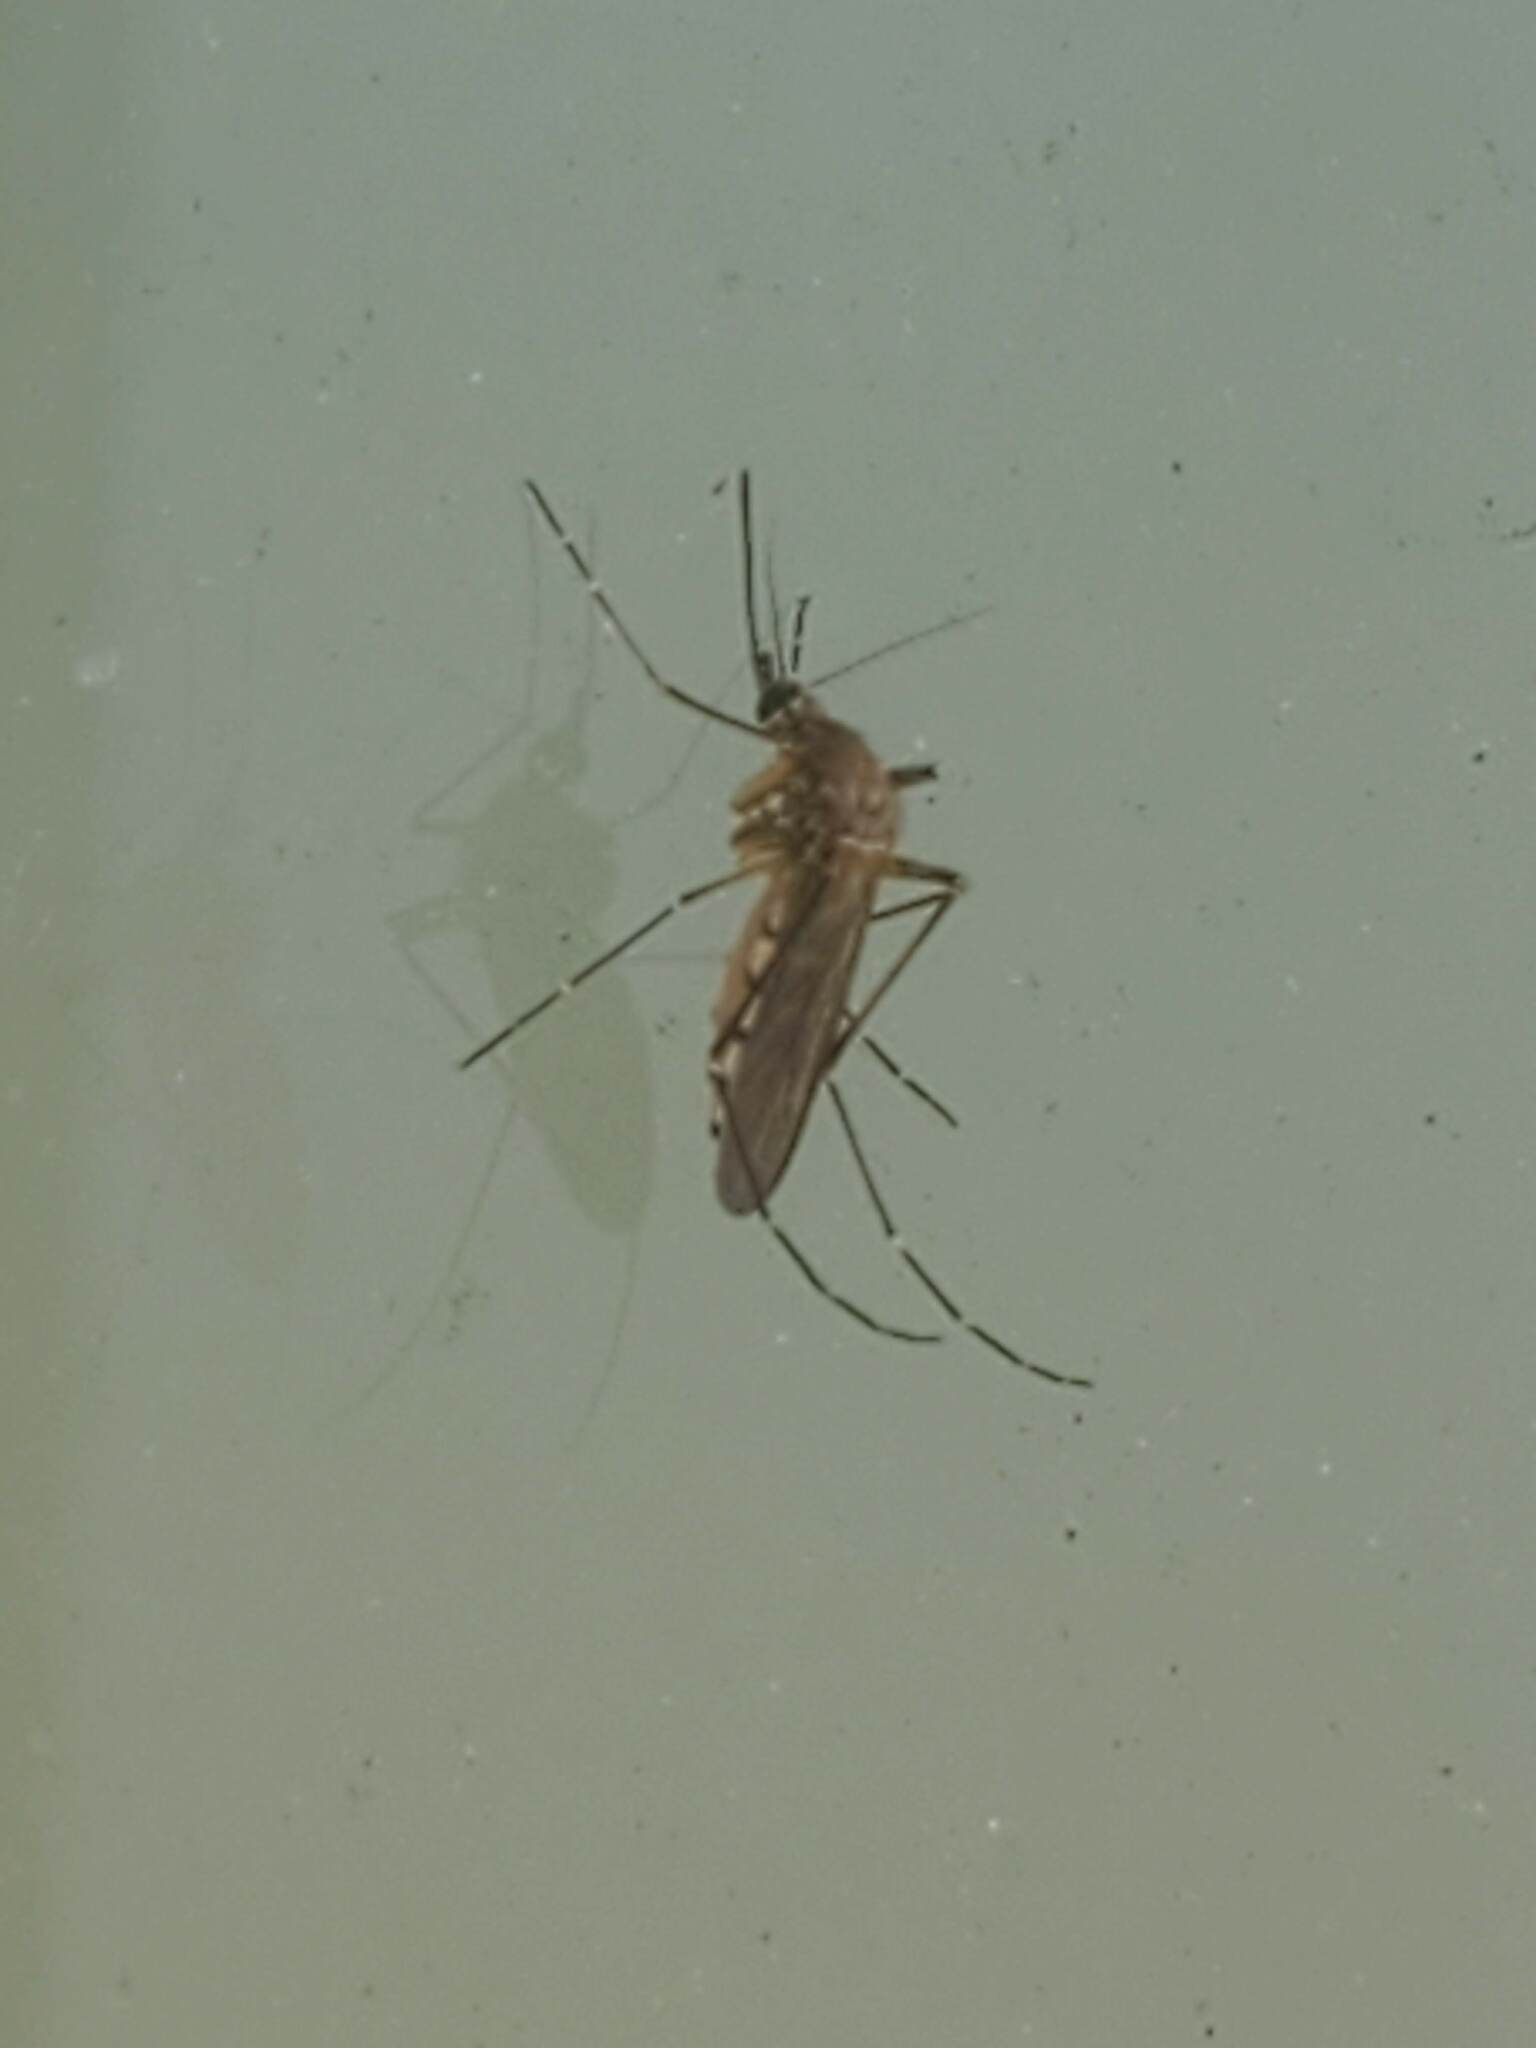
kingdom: Animalia
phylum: Arthropoda
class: Insecta
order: Diptera
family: Culicidae
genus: Aedes
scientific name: Aedes vexans
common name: Inland floodwater mosquito
